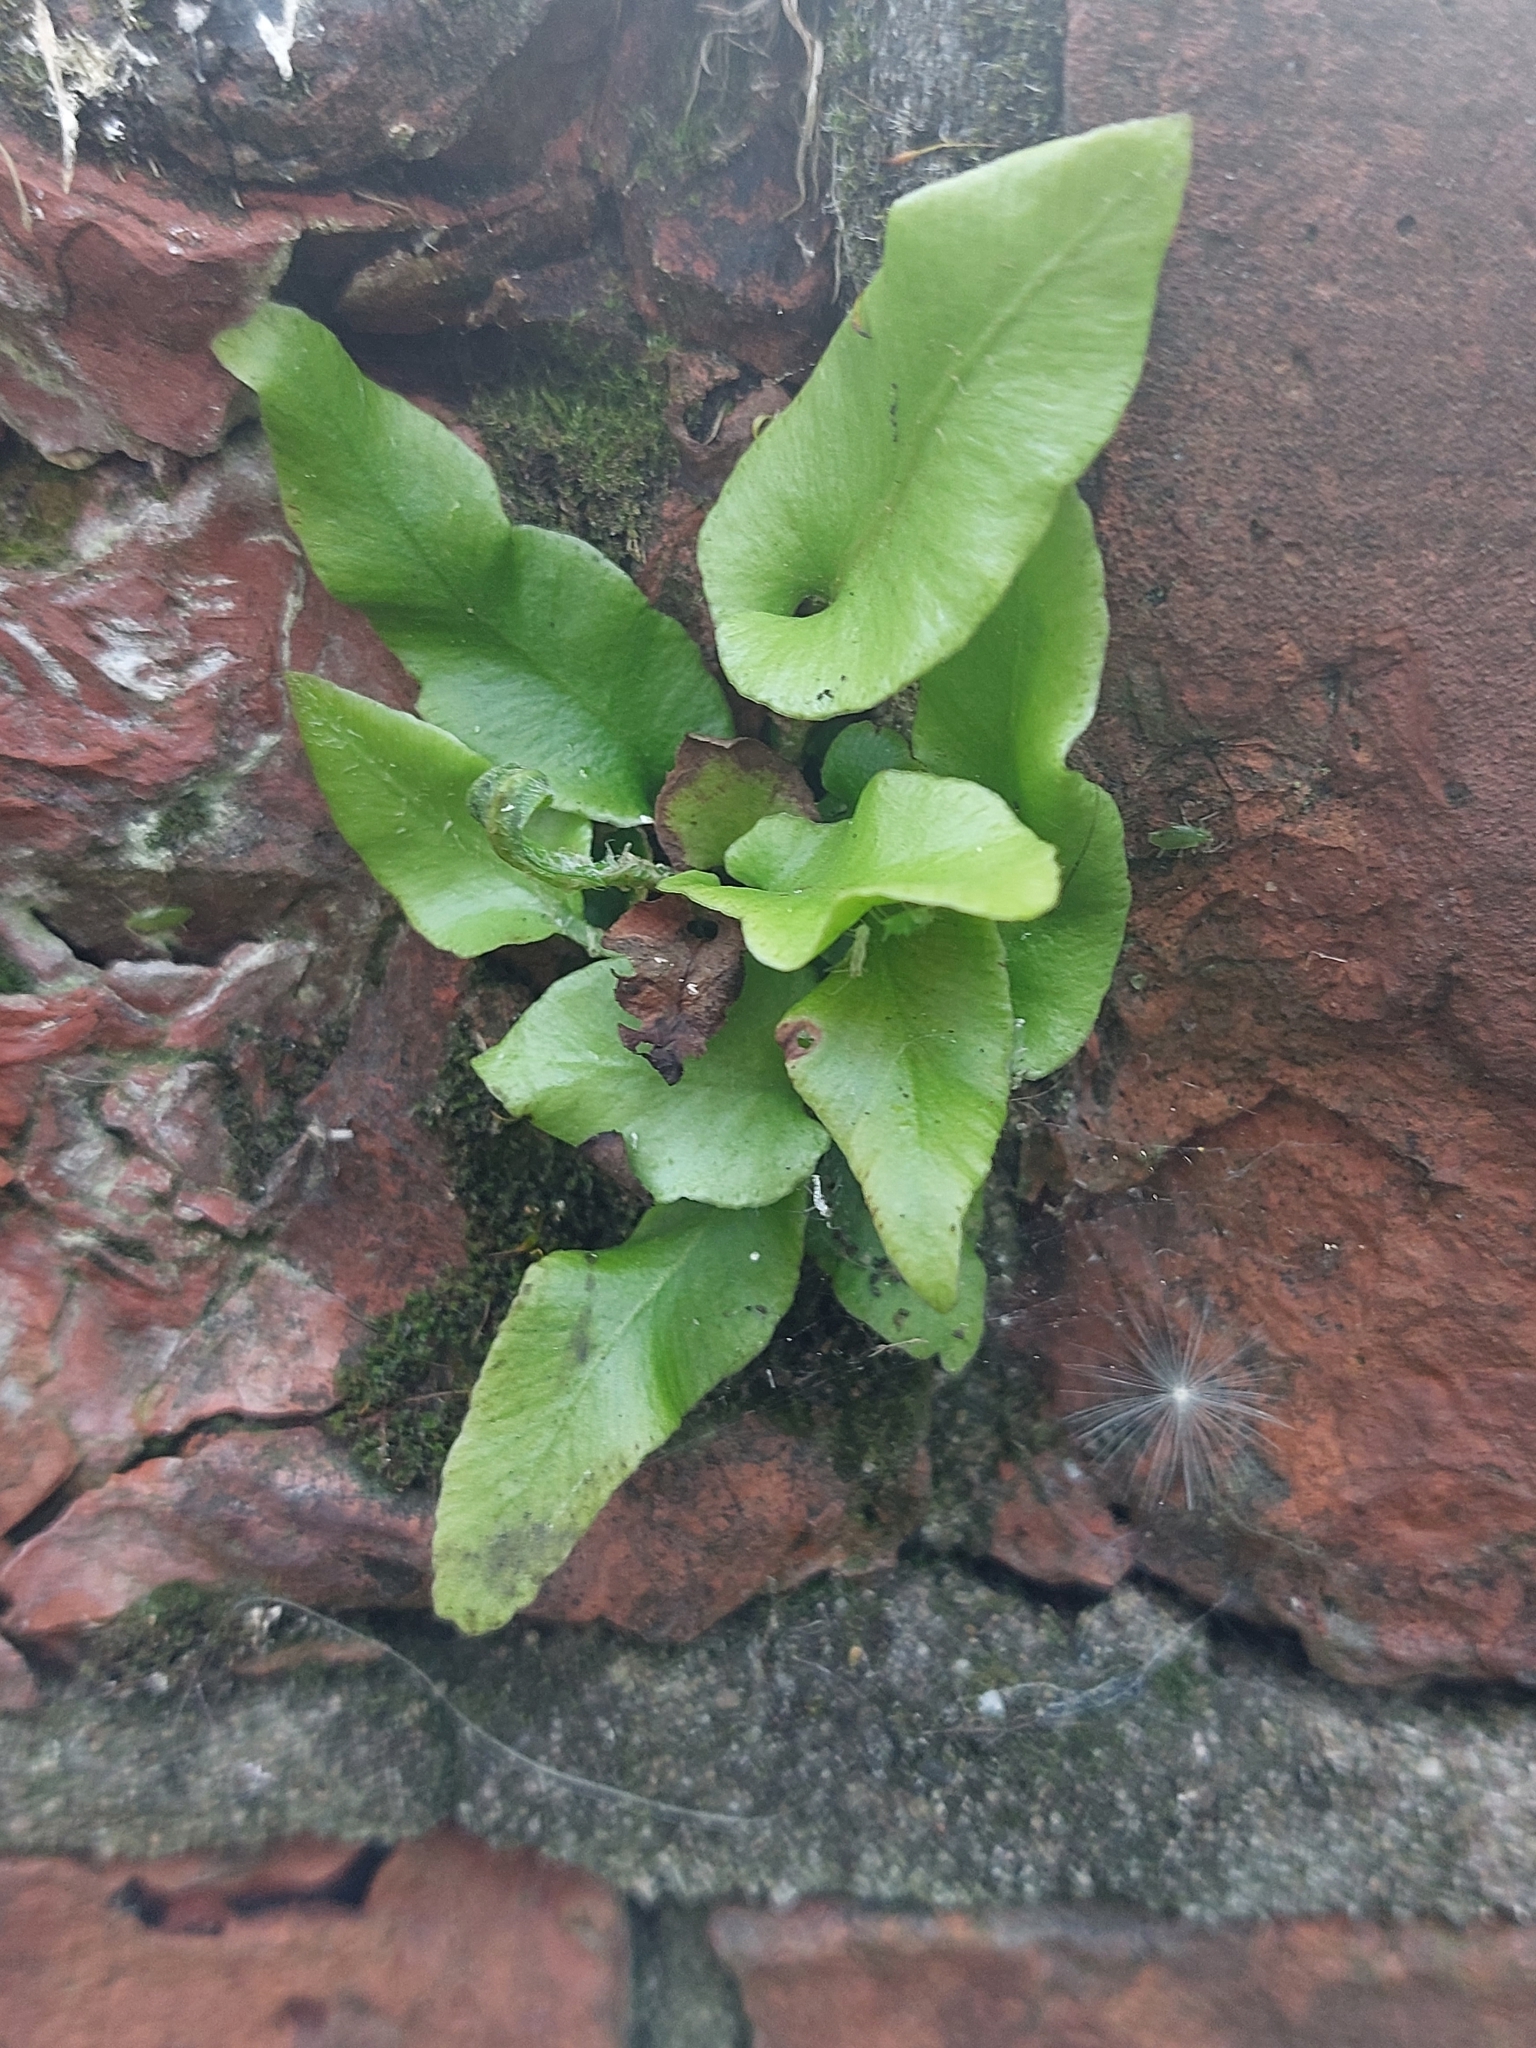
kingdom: Plantae
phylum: Tracheophyta
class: Polypodiopsida
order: Polypodiales
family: Aspleniaceae
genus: Asplenium
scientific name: Asplenium scolopendrium
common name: Hart's-tongue fern
